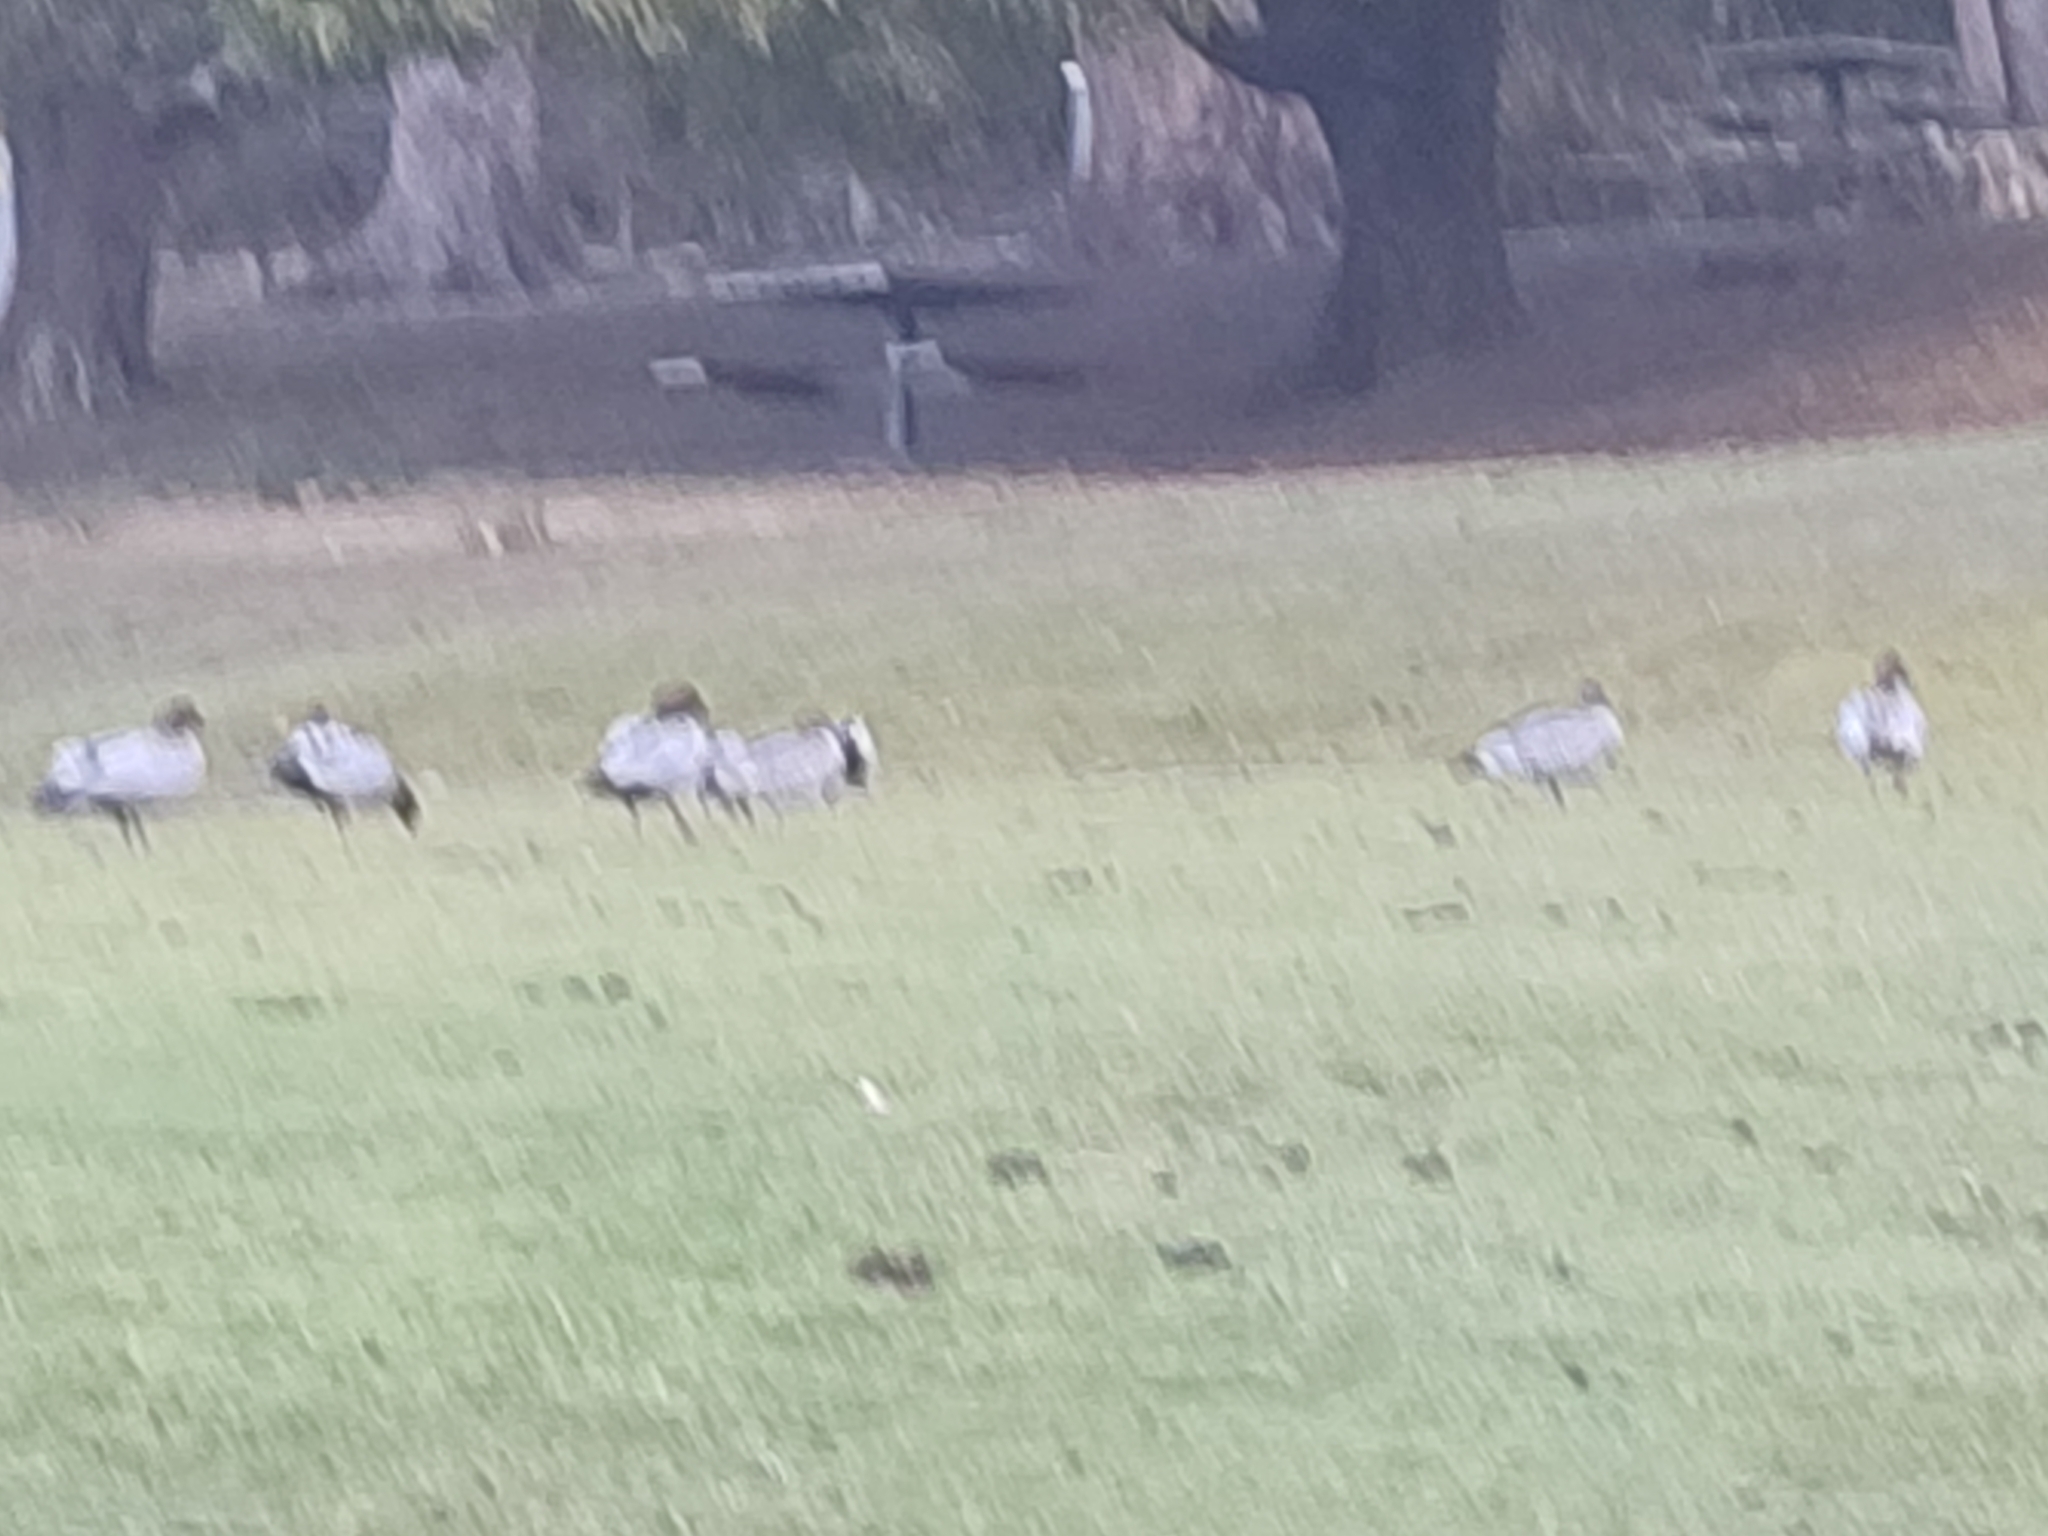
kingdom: Animalia
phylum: Chordata
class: Aves
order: Anseriformes
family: Anatidae
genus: Chenonetta
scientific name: Chenonetta jubata
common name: Maned duck
